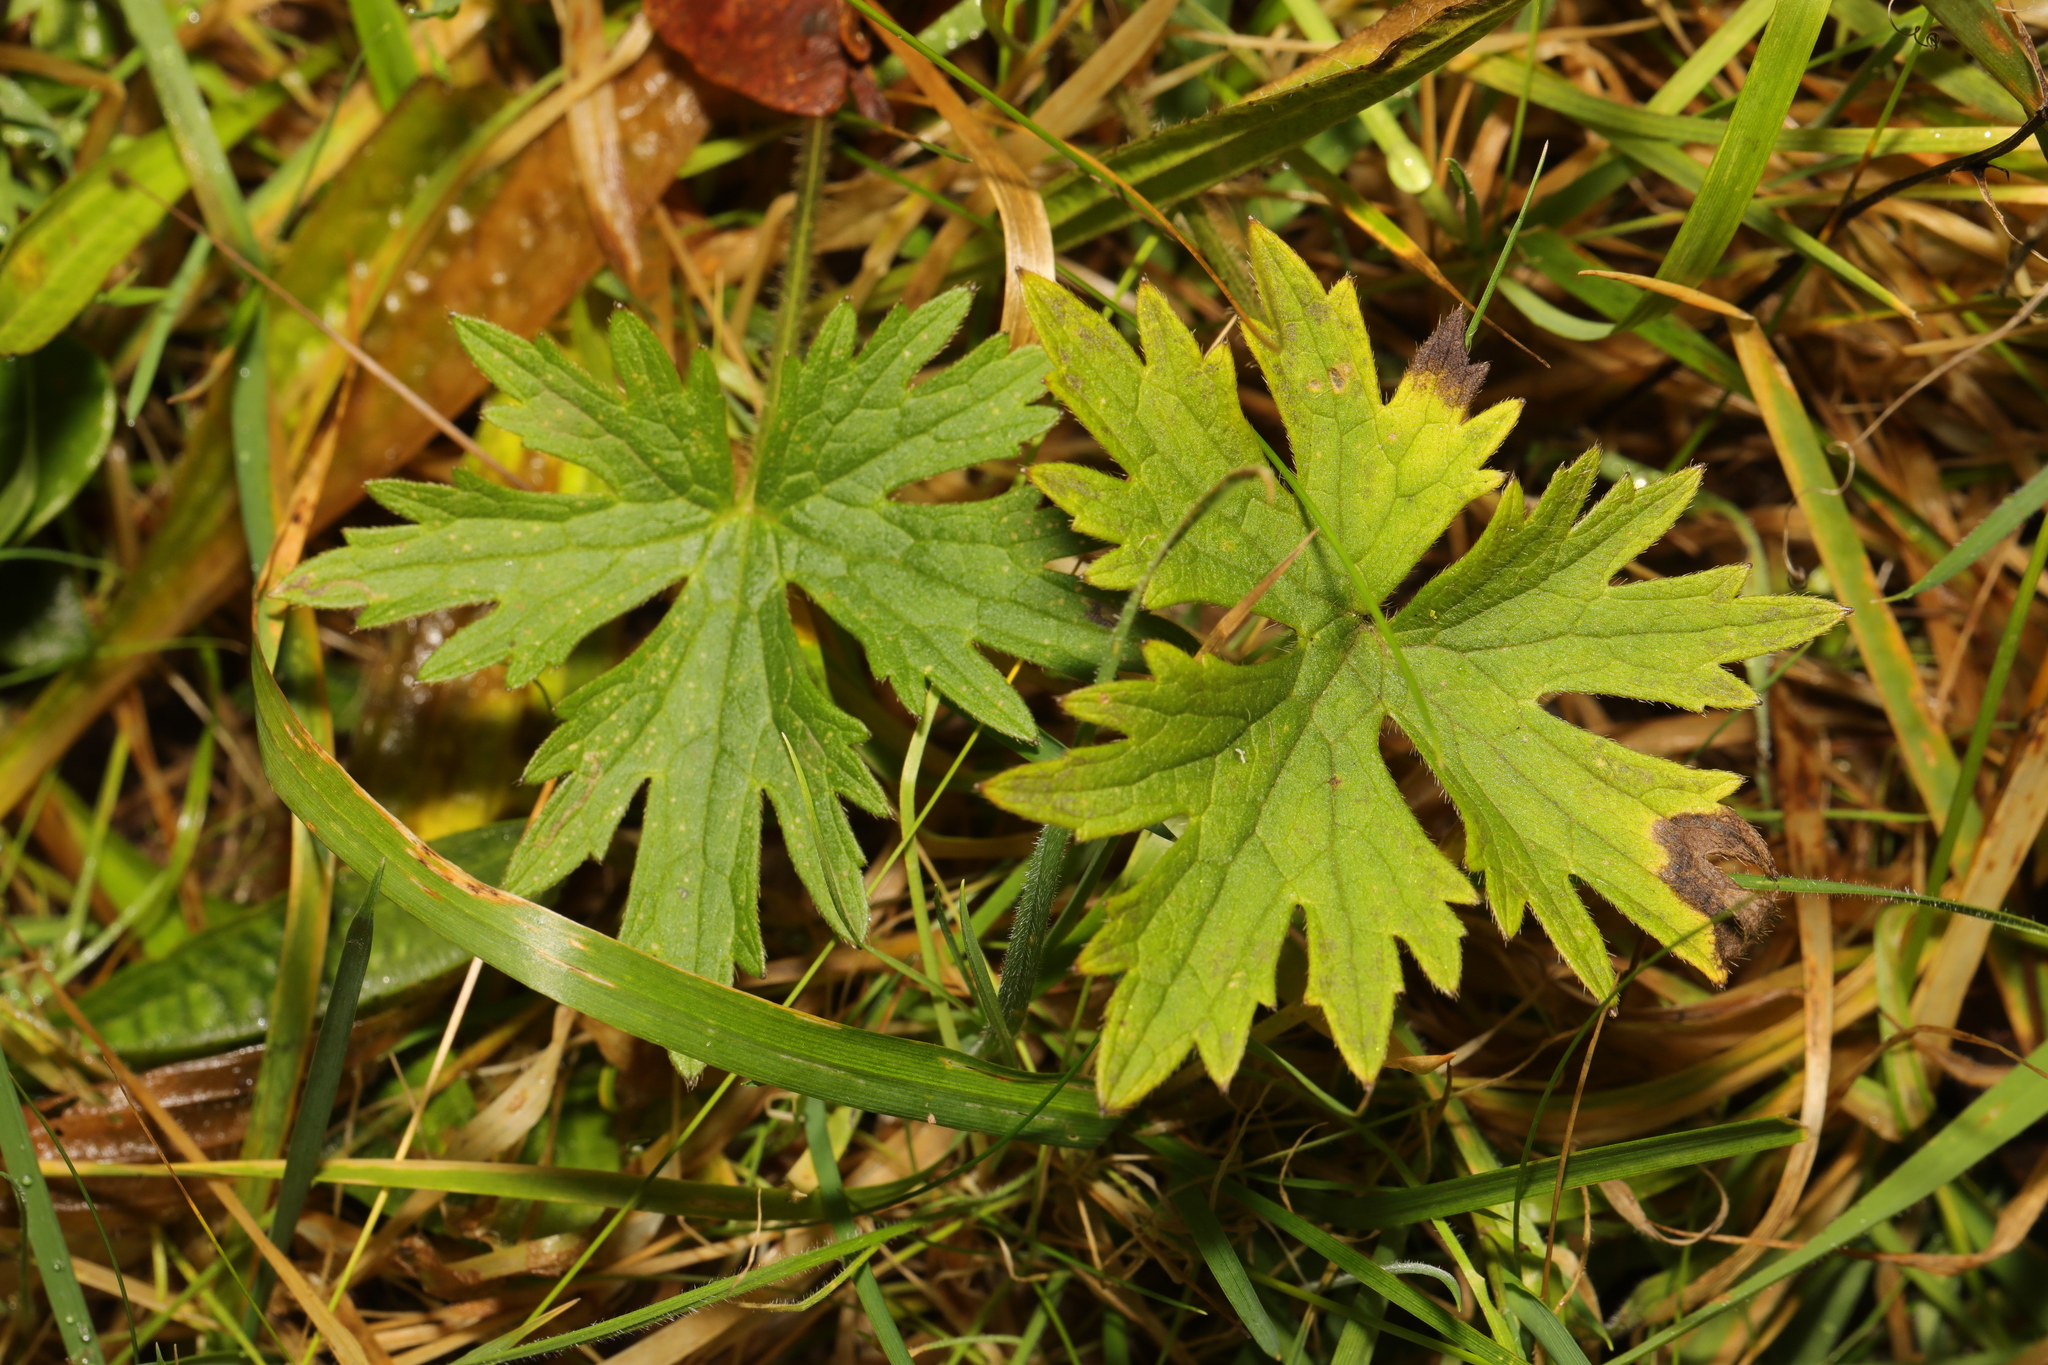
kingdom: Plantae
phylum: Tracheophyta
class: Magnoliopsida
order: Ranunculales
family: Ranunculaceae
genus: Ranunculus
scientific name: Ranunculus acris
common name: Meadow buttercup
